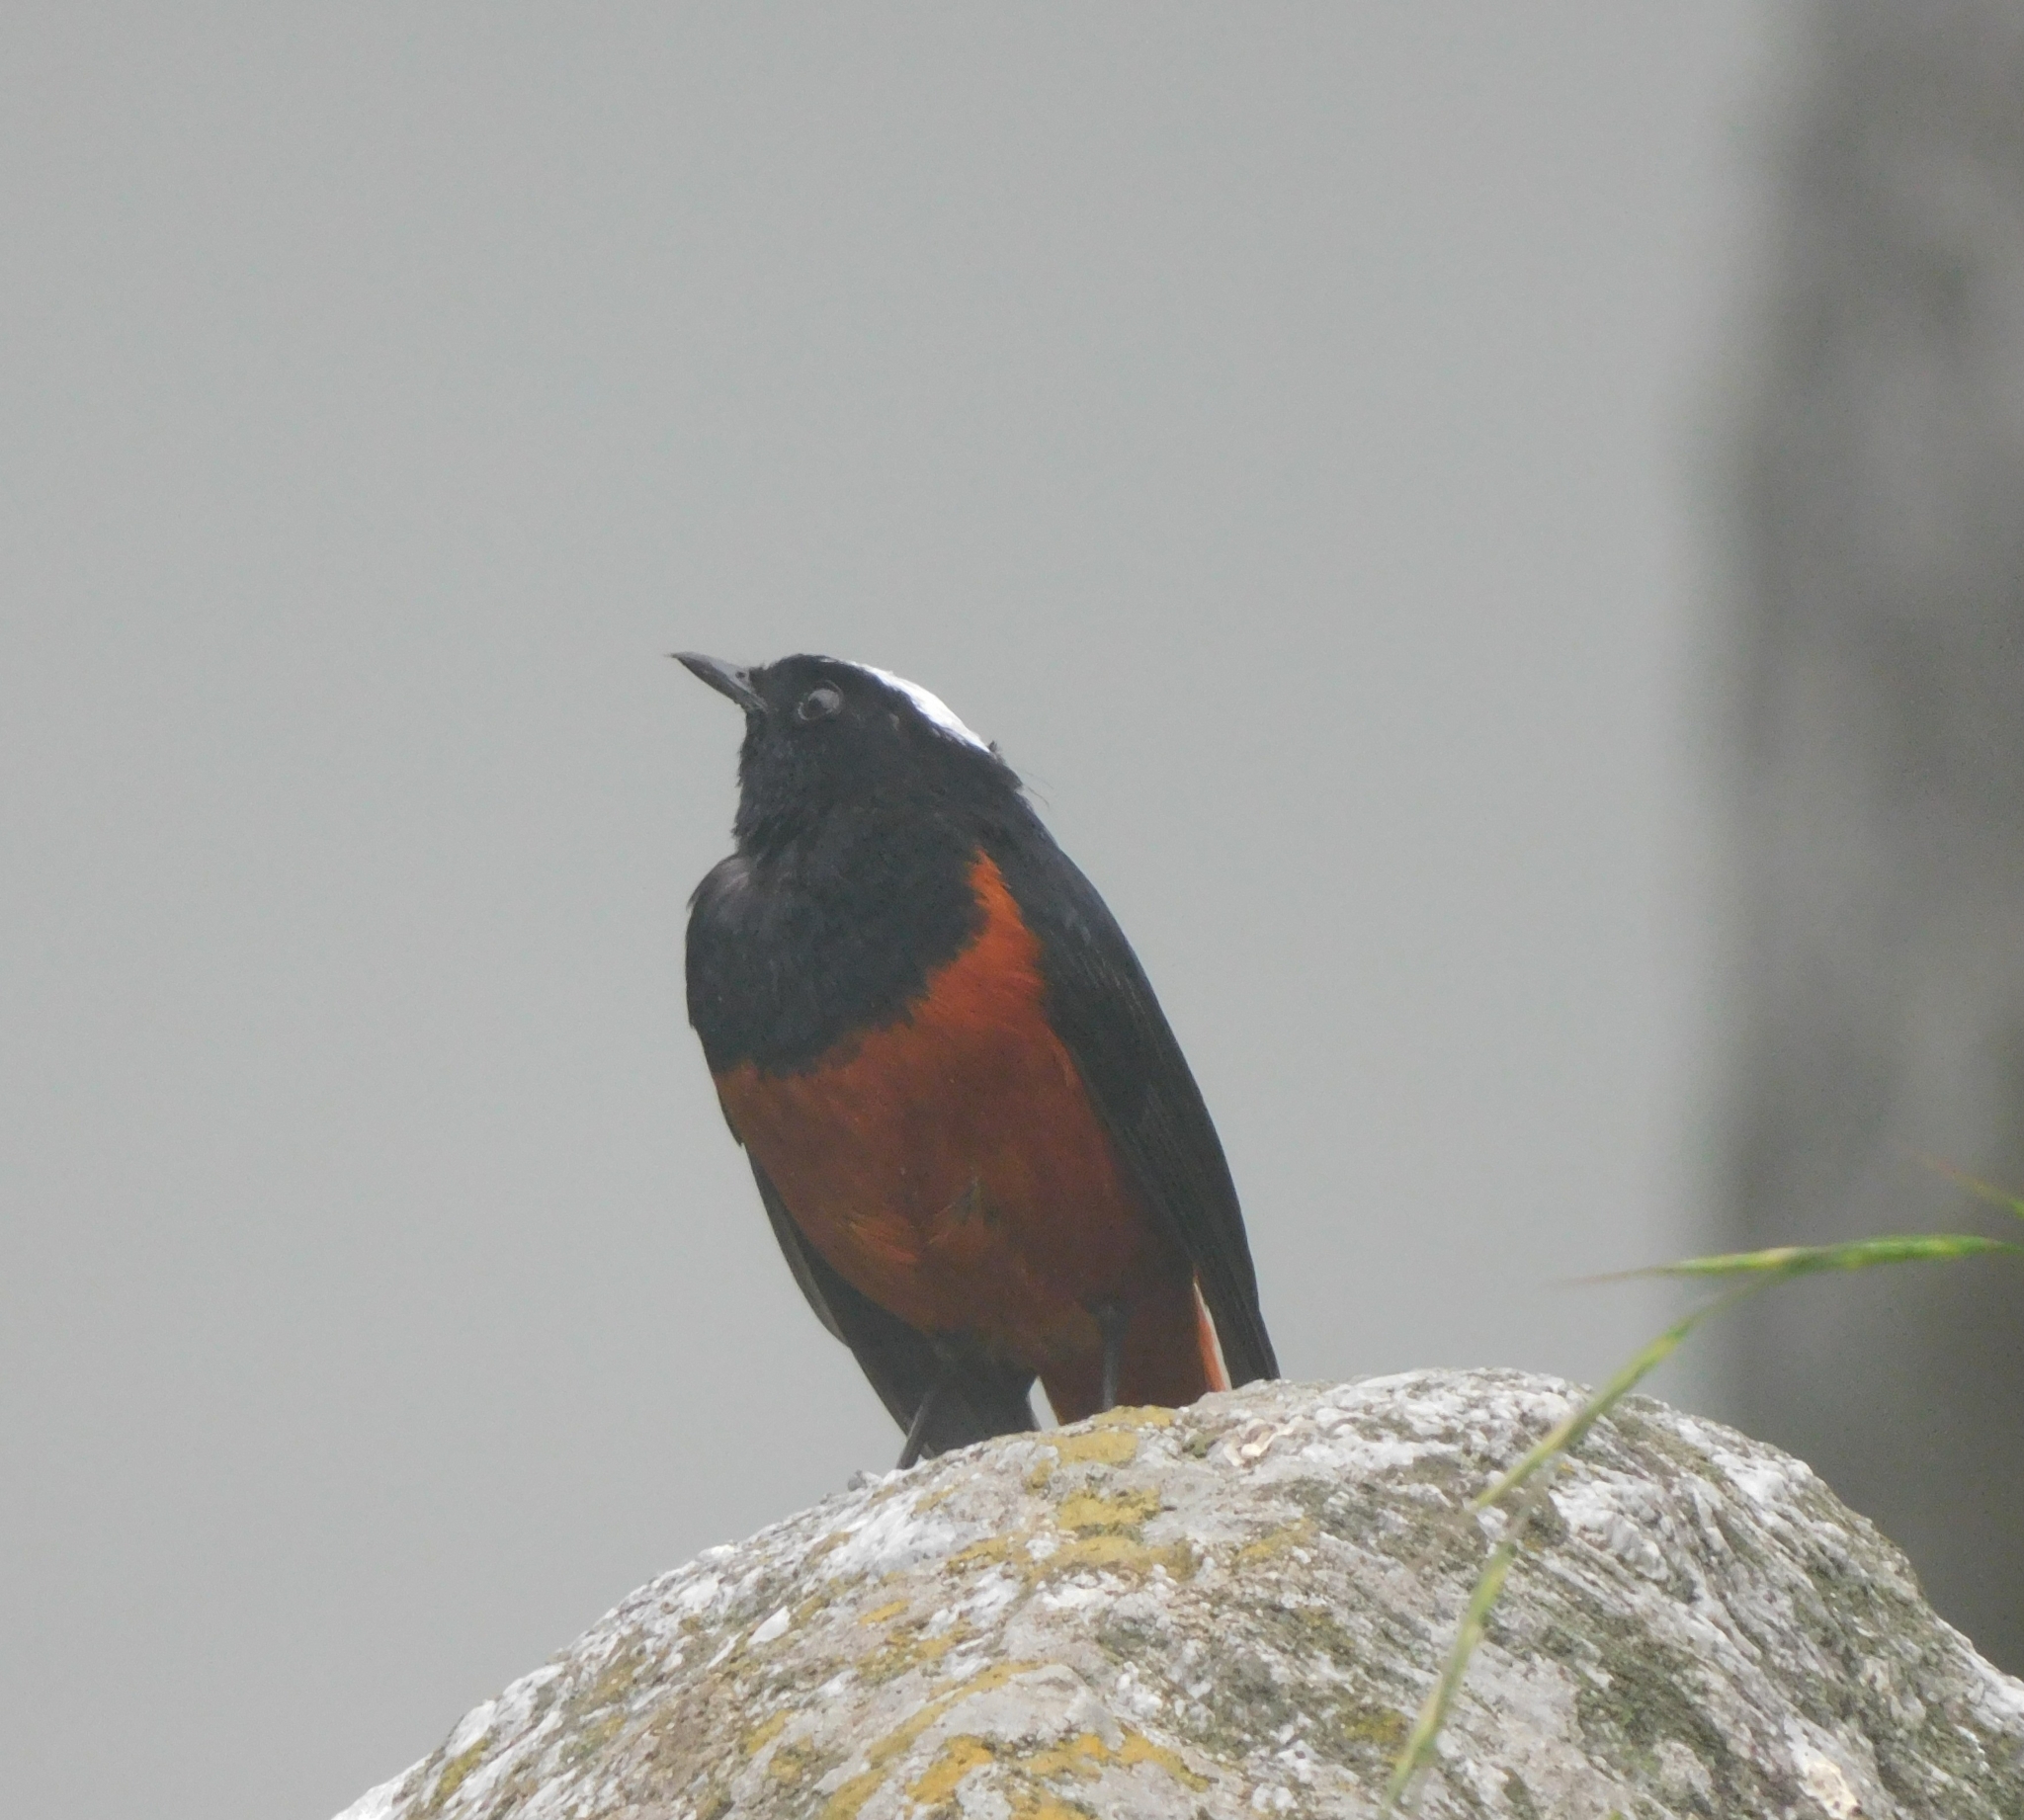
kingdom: Animalia
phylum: Chordata
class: Aves
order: Passeriformes
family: Muscicapidae
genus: Chaimarrornis
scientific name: Chaimarrornis leucocephalus
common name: White-capped redstart
